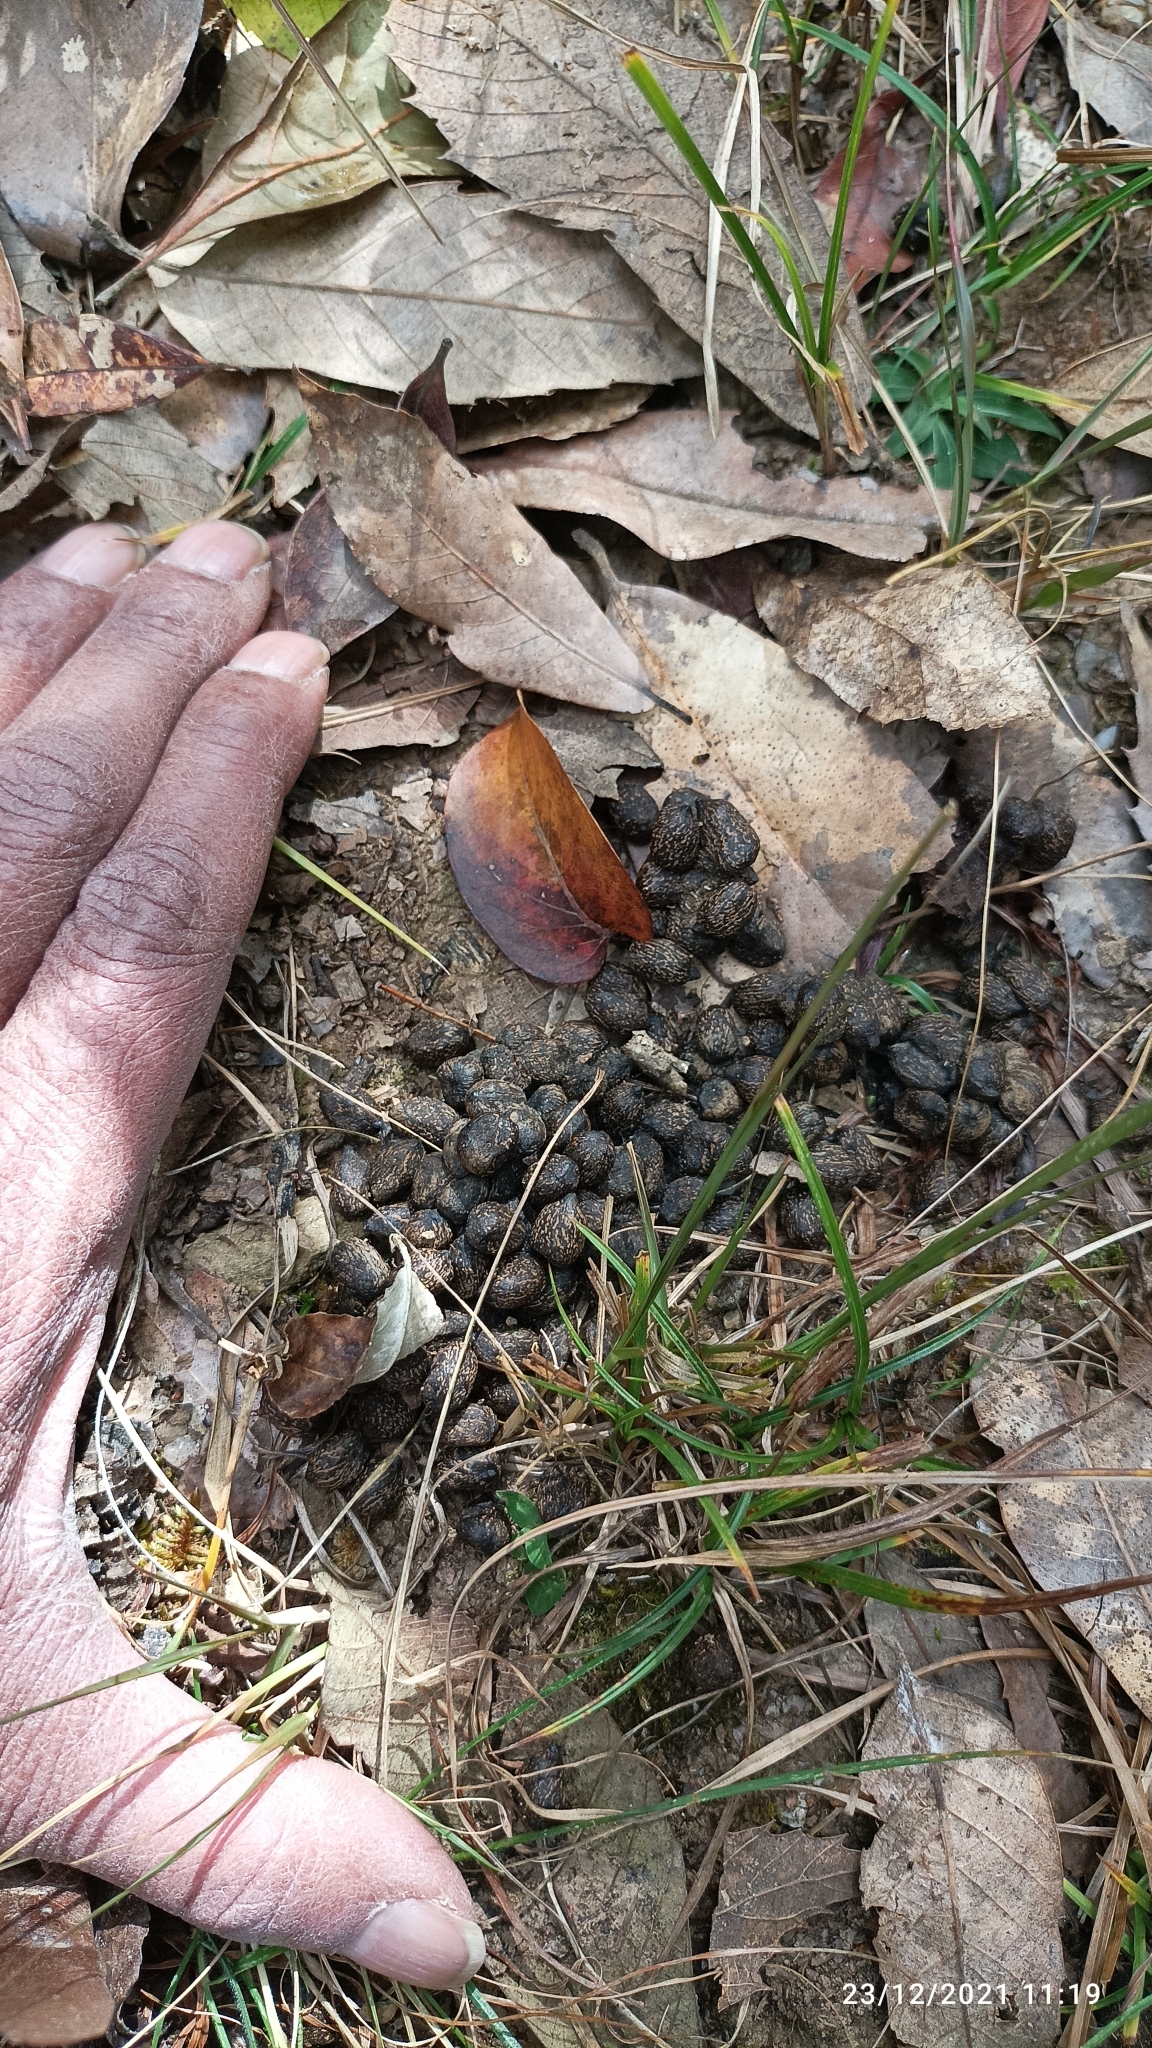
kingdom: Animalia
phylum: Chordata
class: Mammalia
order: Artiodactyla
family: Cervidae
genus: Muntiacus
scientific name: Muntiacus muntjak
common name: Indian muntjac
